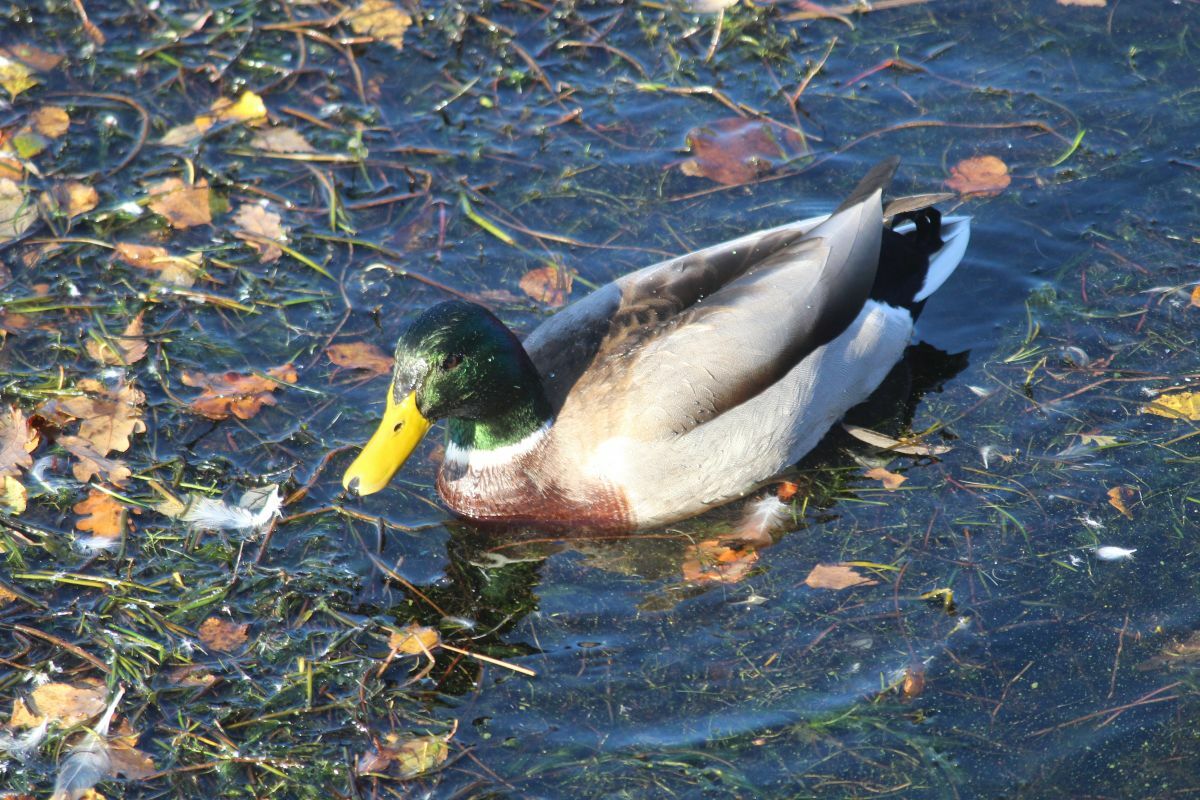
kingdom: Animalia
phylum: Chordata
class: Aves
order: Anseriformes
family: Anatidae
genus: Anas
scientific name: Anas platyrhynchos
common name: Mallard
